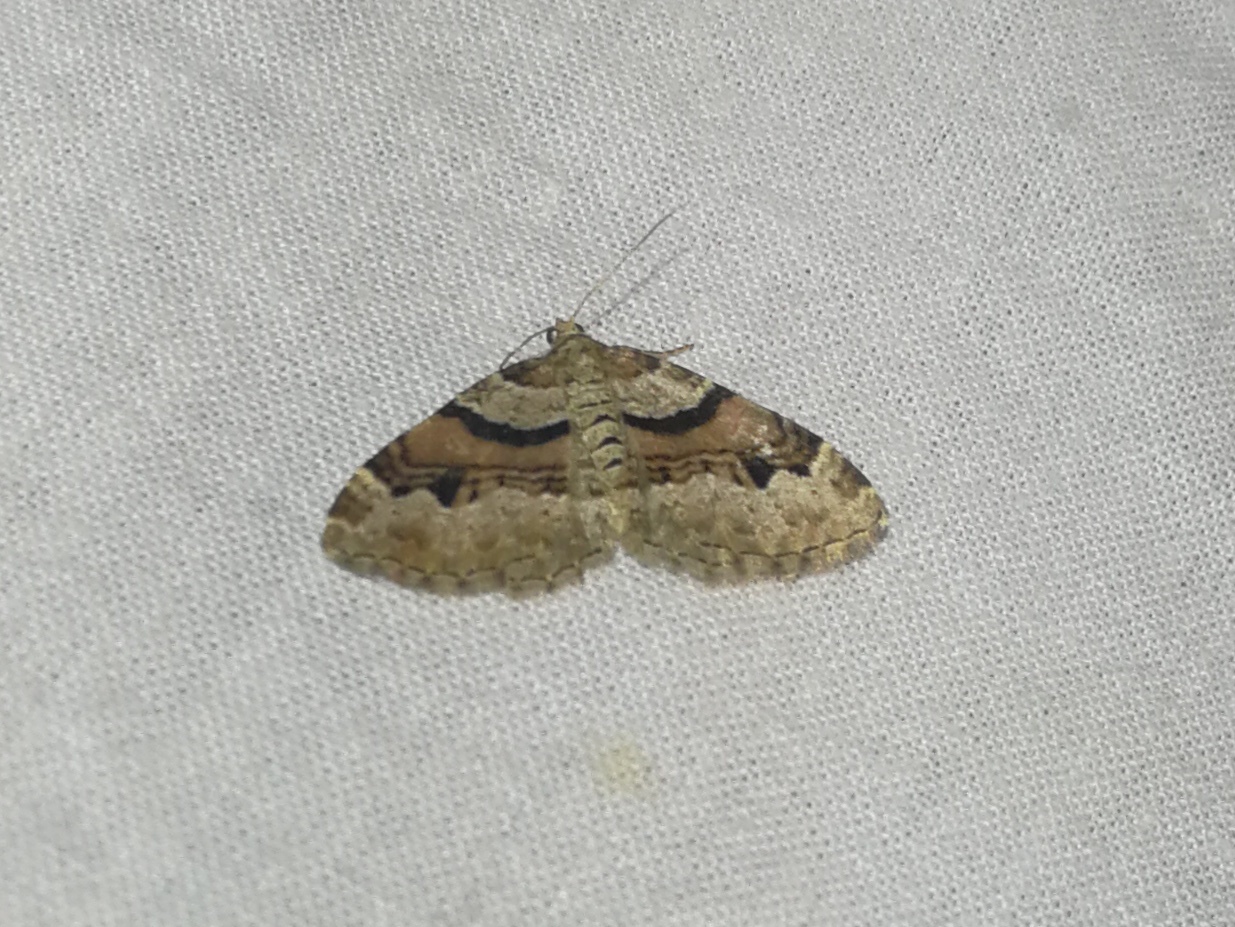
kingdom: Animalia
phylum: Arthropoda
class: Insecta
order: Lepidoptera
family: Geometridae
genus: Xanthorhoe
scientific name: Xanthorhoe designata
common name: Flame carpet
